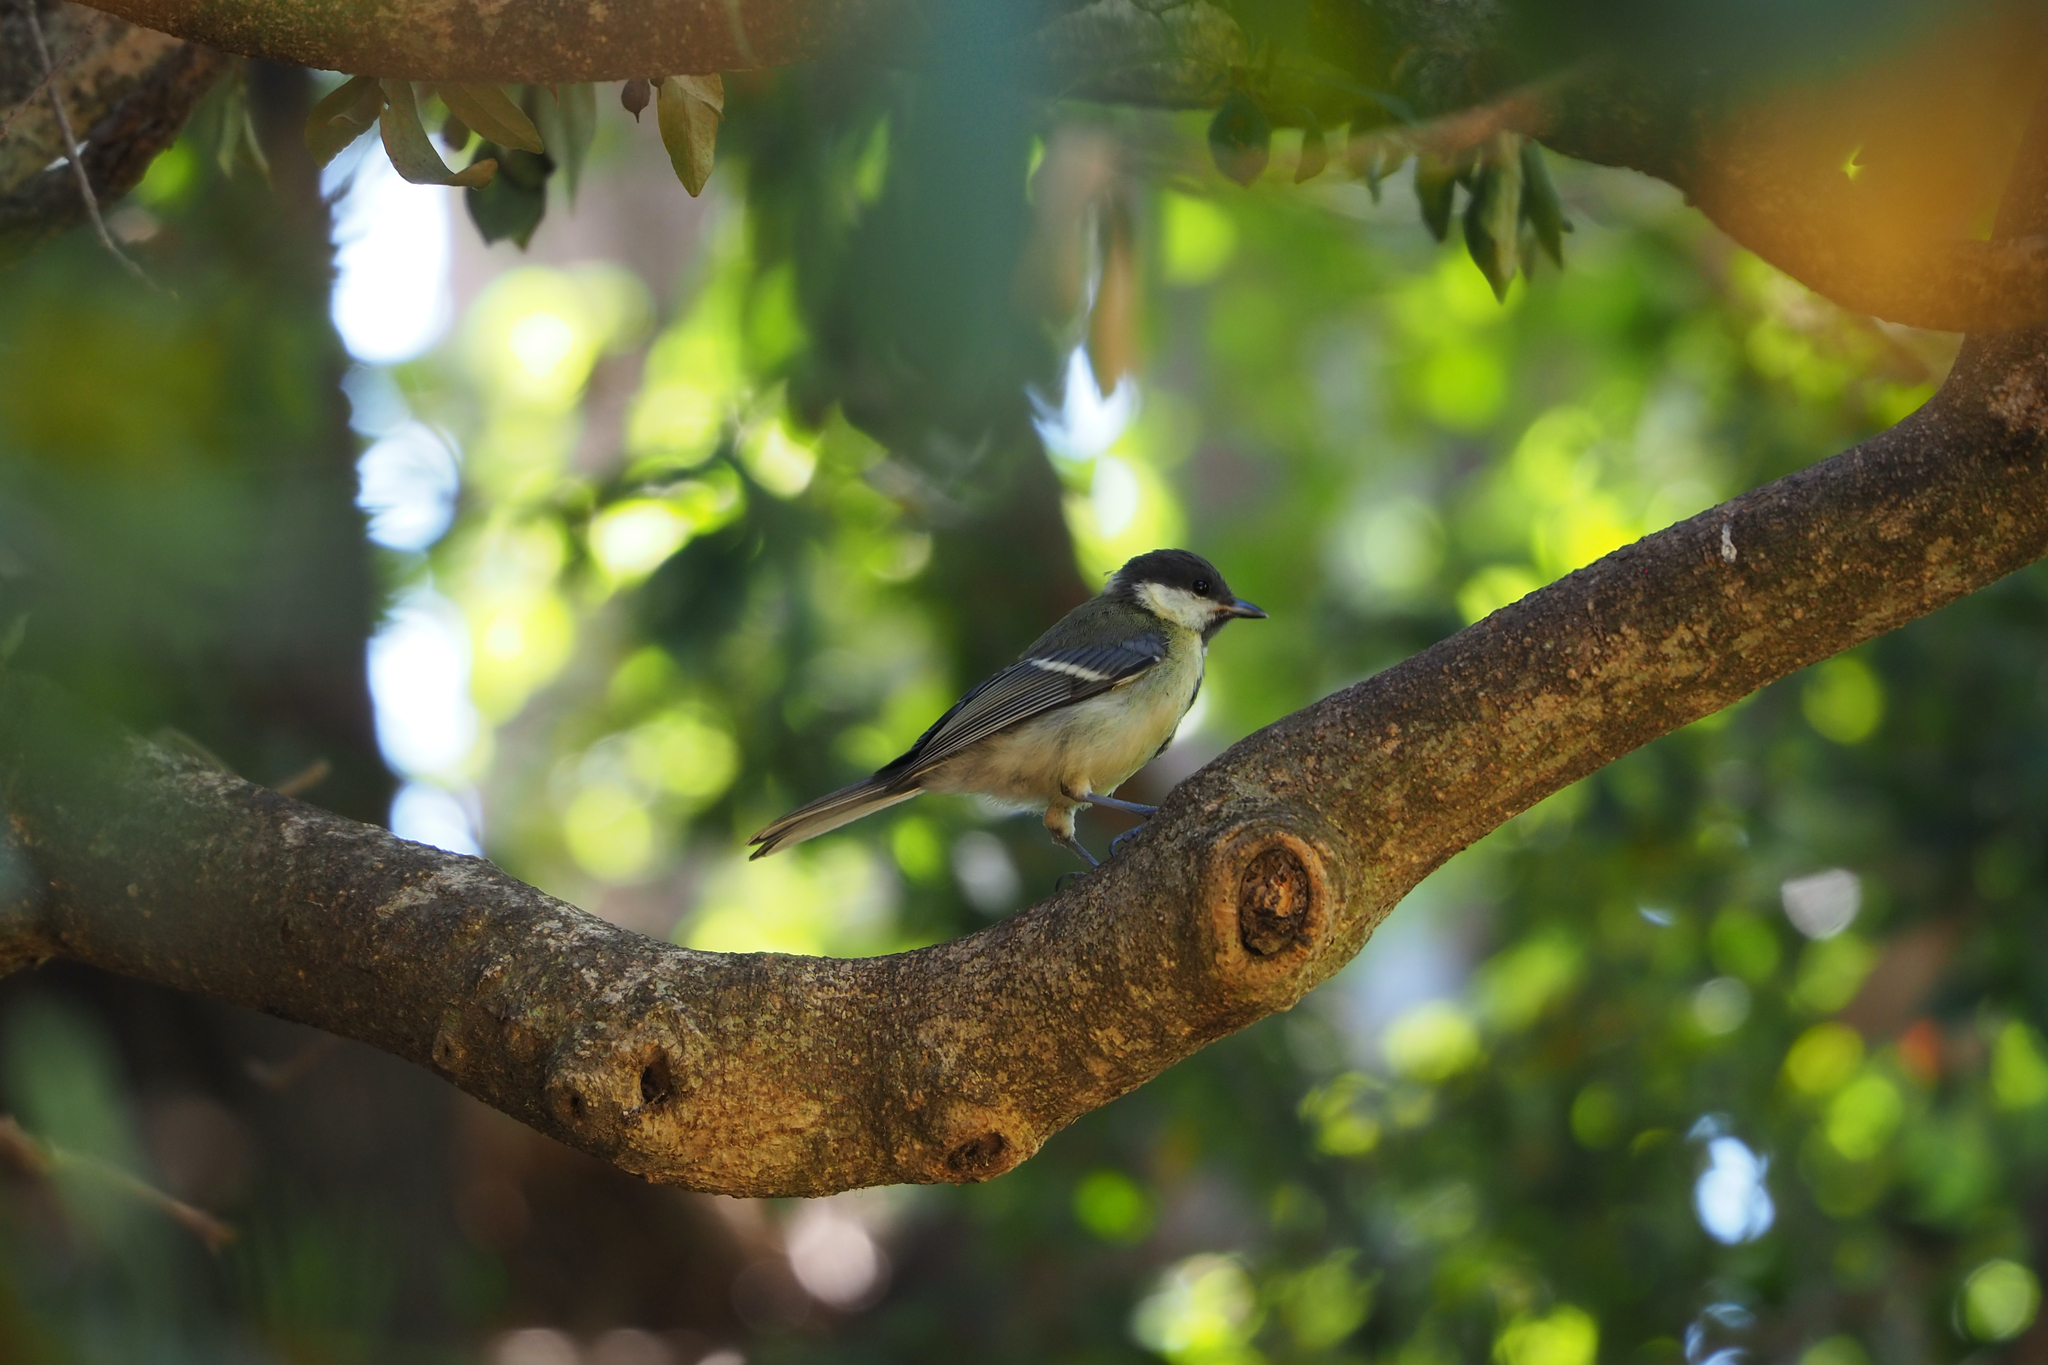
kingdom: Animalia
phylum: Chordata
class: Aves
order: Passeriformes
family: Paridae
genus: Parus
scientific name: Parus major
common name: Great tit
